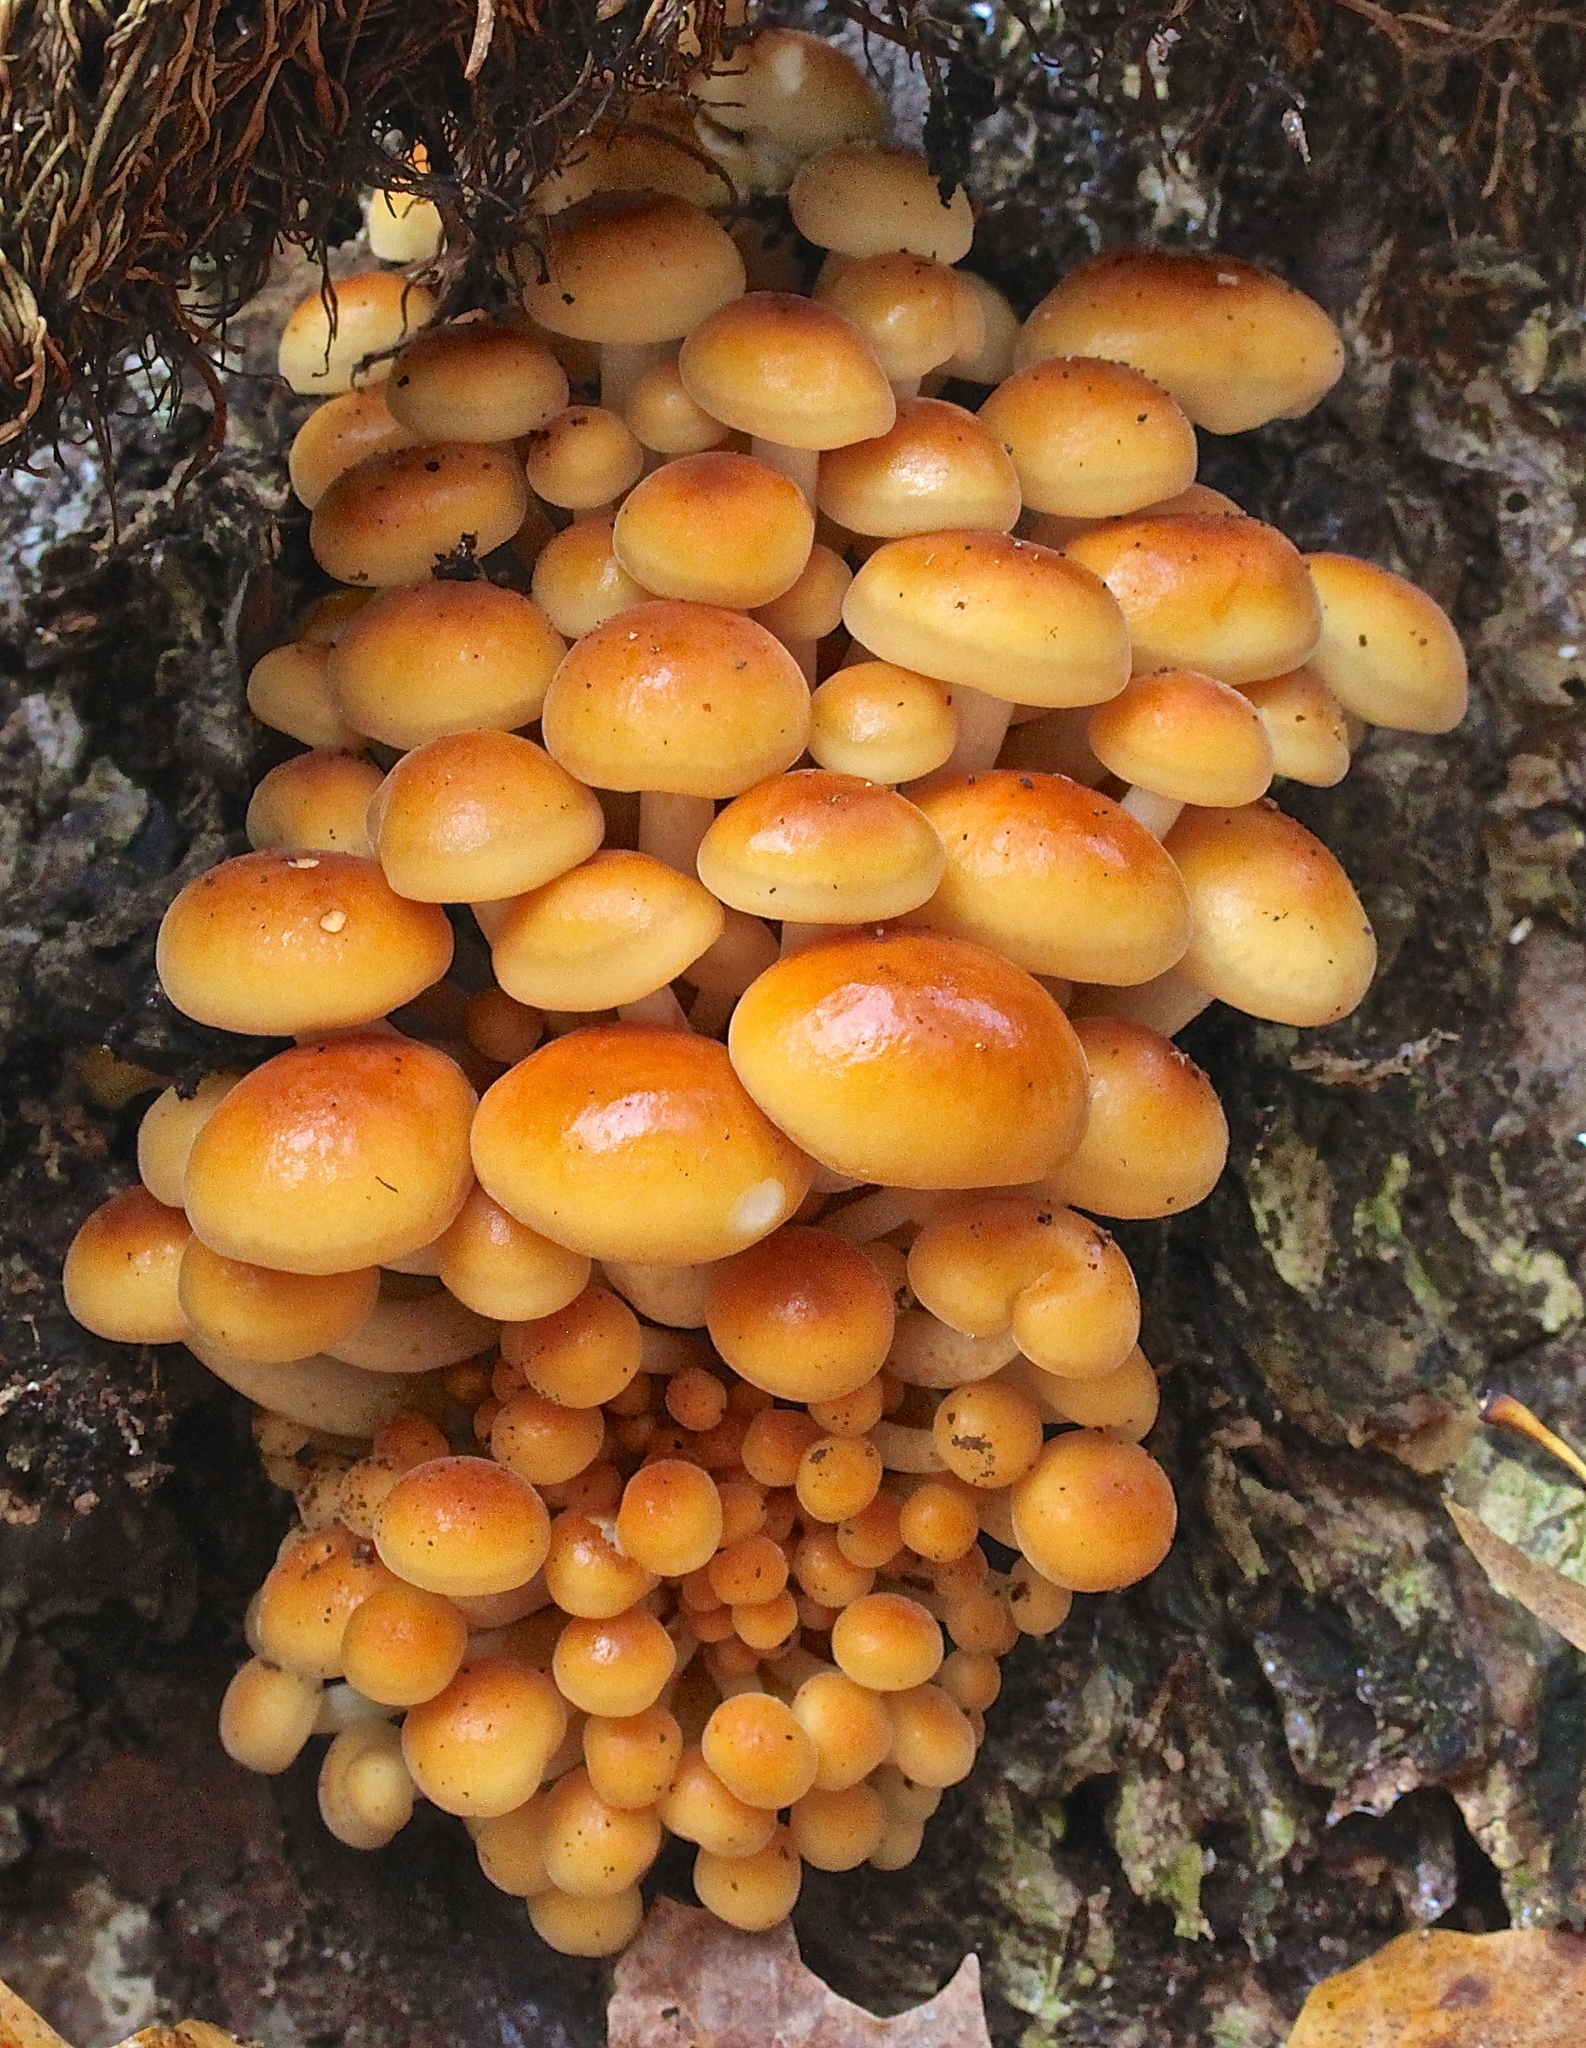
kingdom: Fungi
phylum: Basidiomycota
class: Agaricomycetes
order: Agaricales
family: Physalacriaceae
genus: Flammulina
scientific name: Flammulina velutipes
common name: Velvet shank
